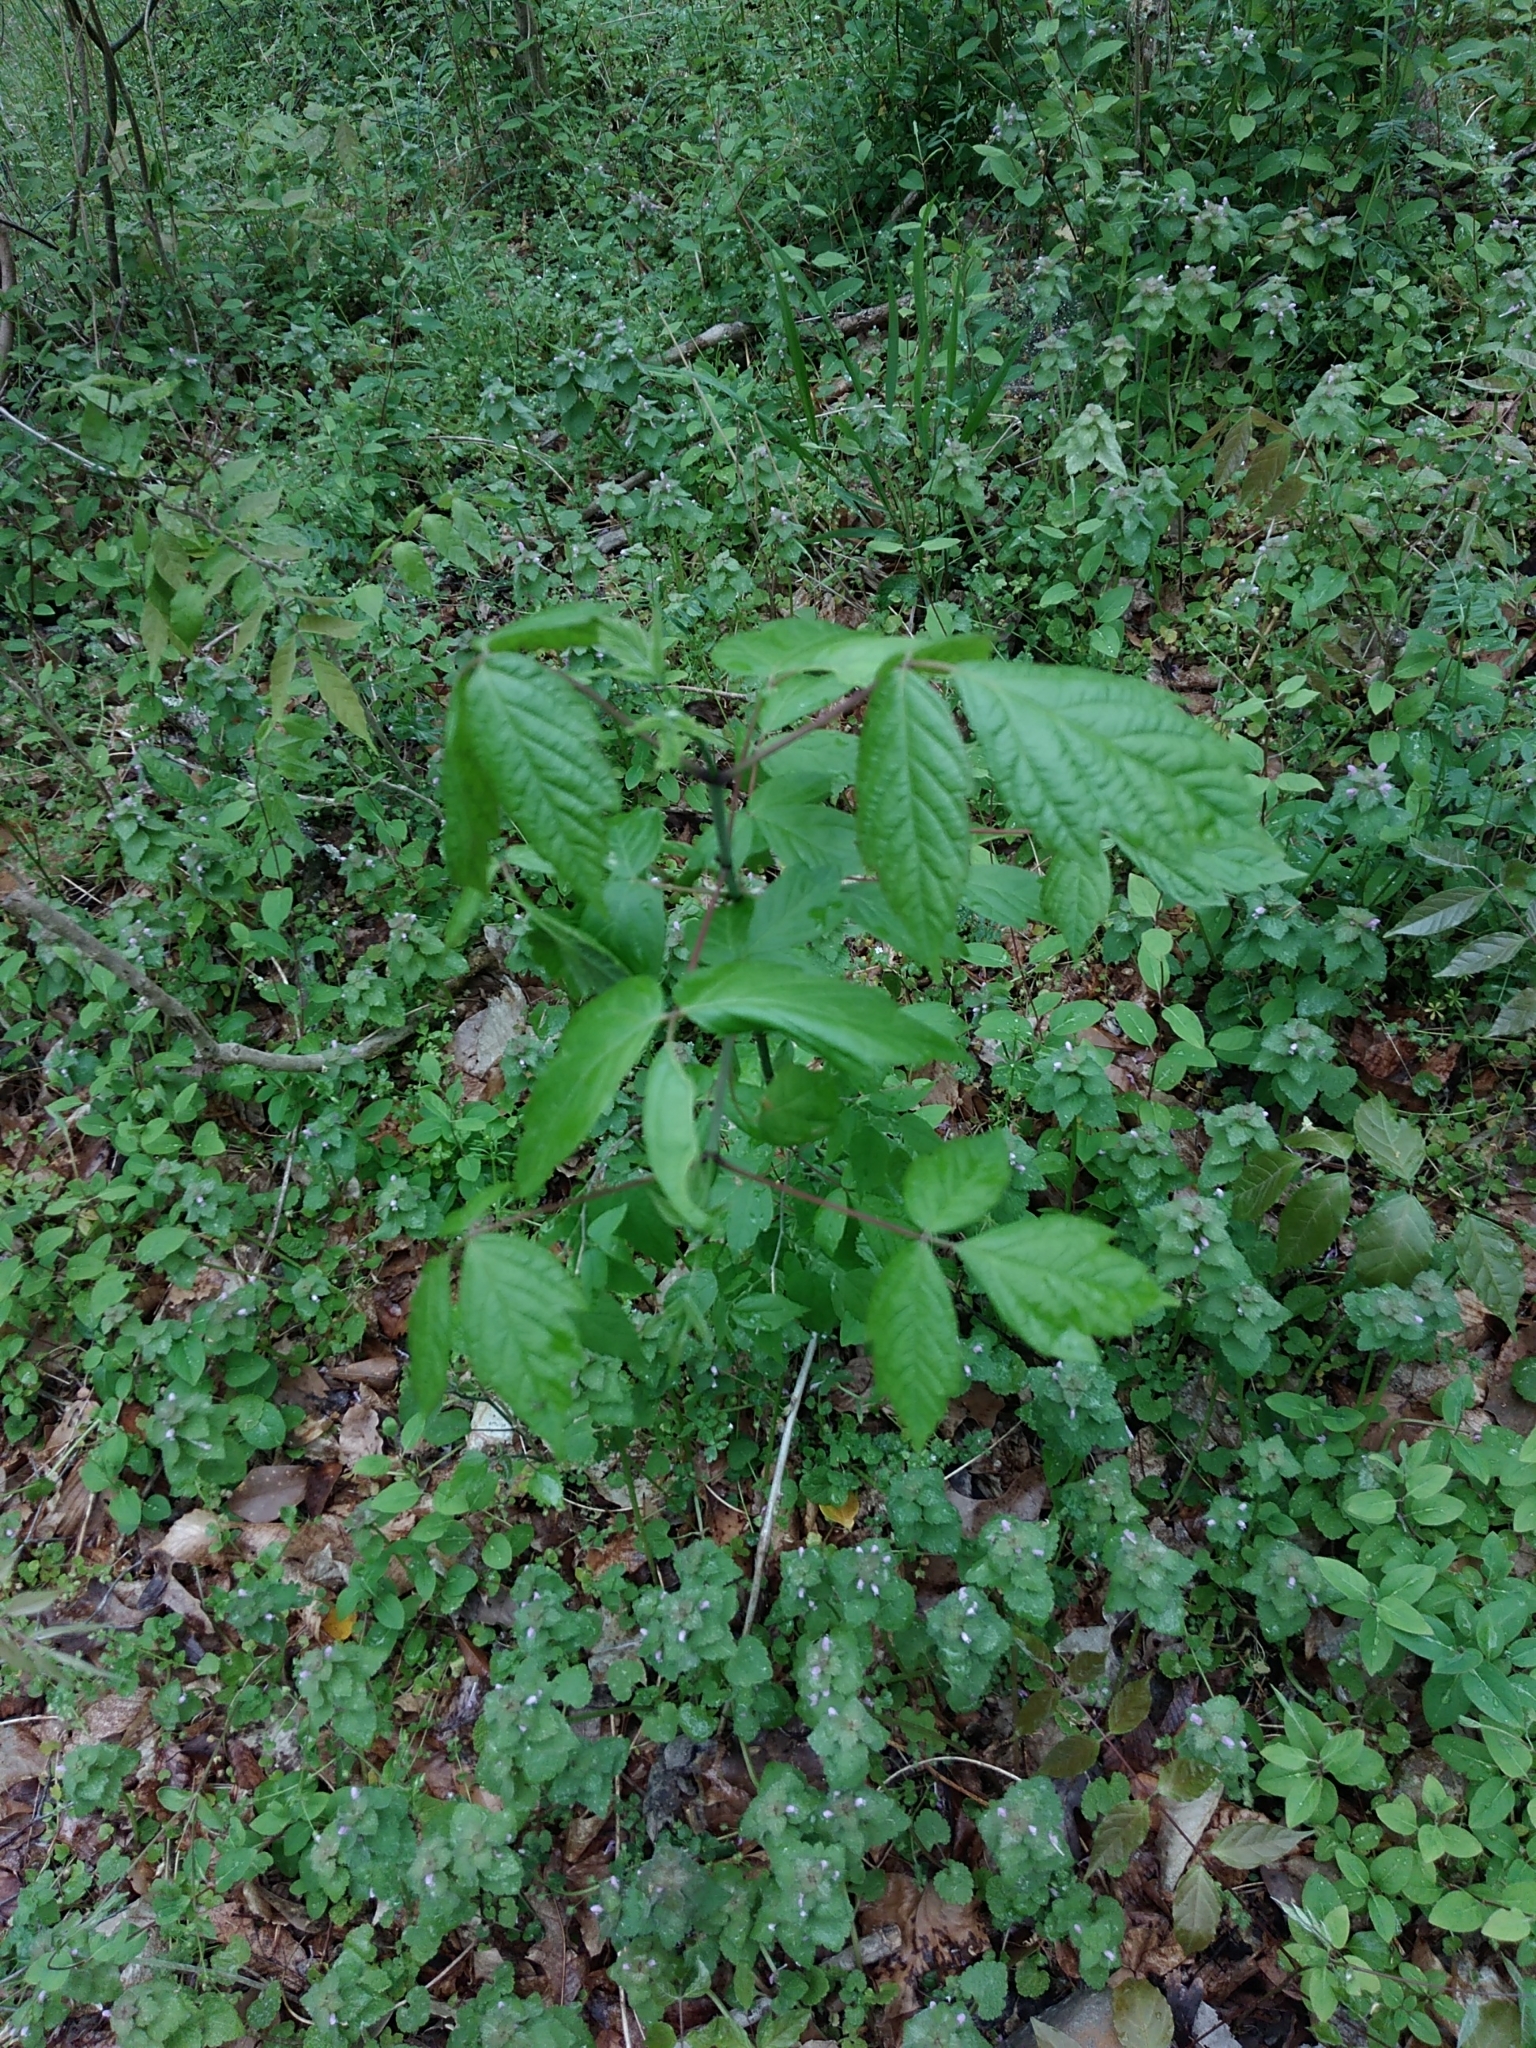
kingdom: Plantae
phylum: Tracheophyta
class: Magnoliopsida
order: Sapindales
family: Sapindaceae
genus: Acer
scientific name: Acer negundo
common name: Ashleaf maple
